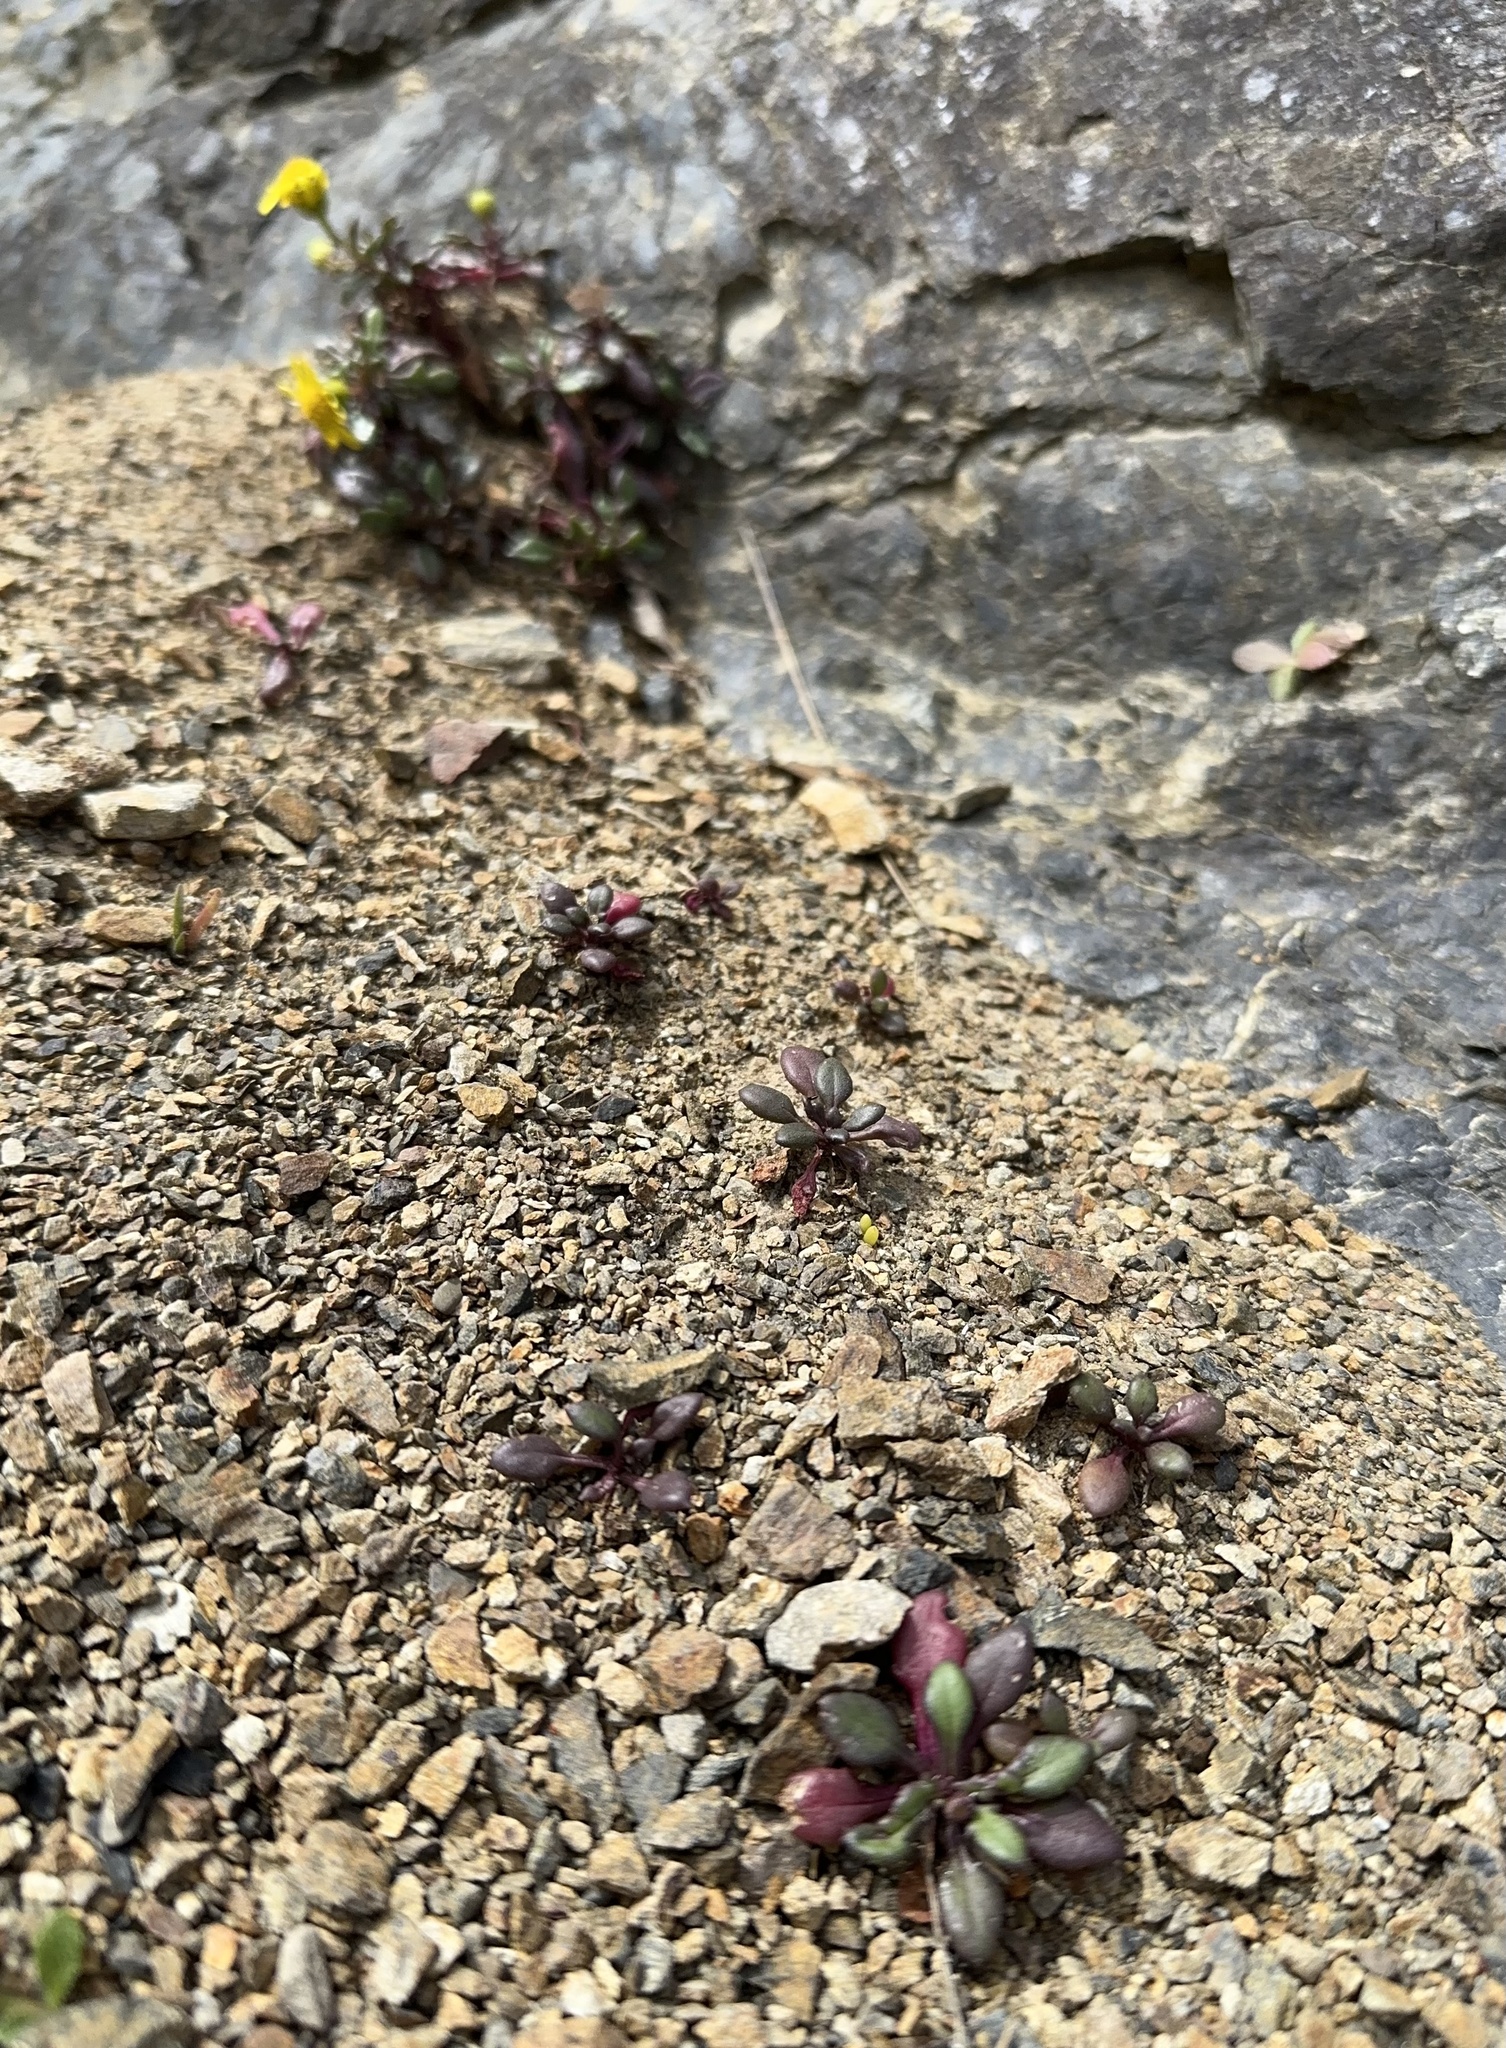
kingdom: Plantae
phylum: Tracheophyta
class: Magnoliopsida
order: Asterales
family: Asteraceae
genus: Senecio
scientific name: Senecio lautus
